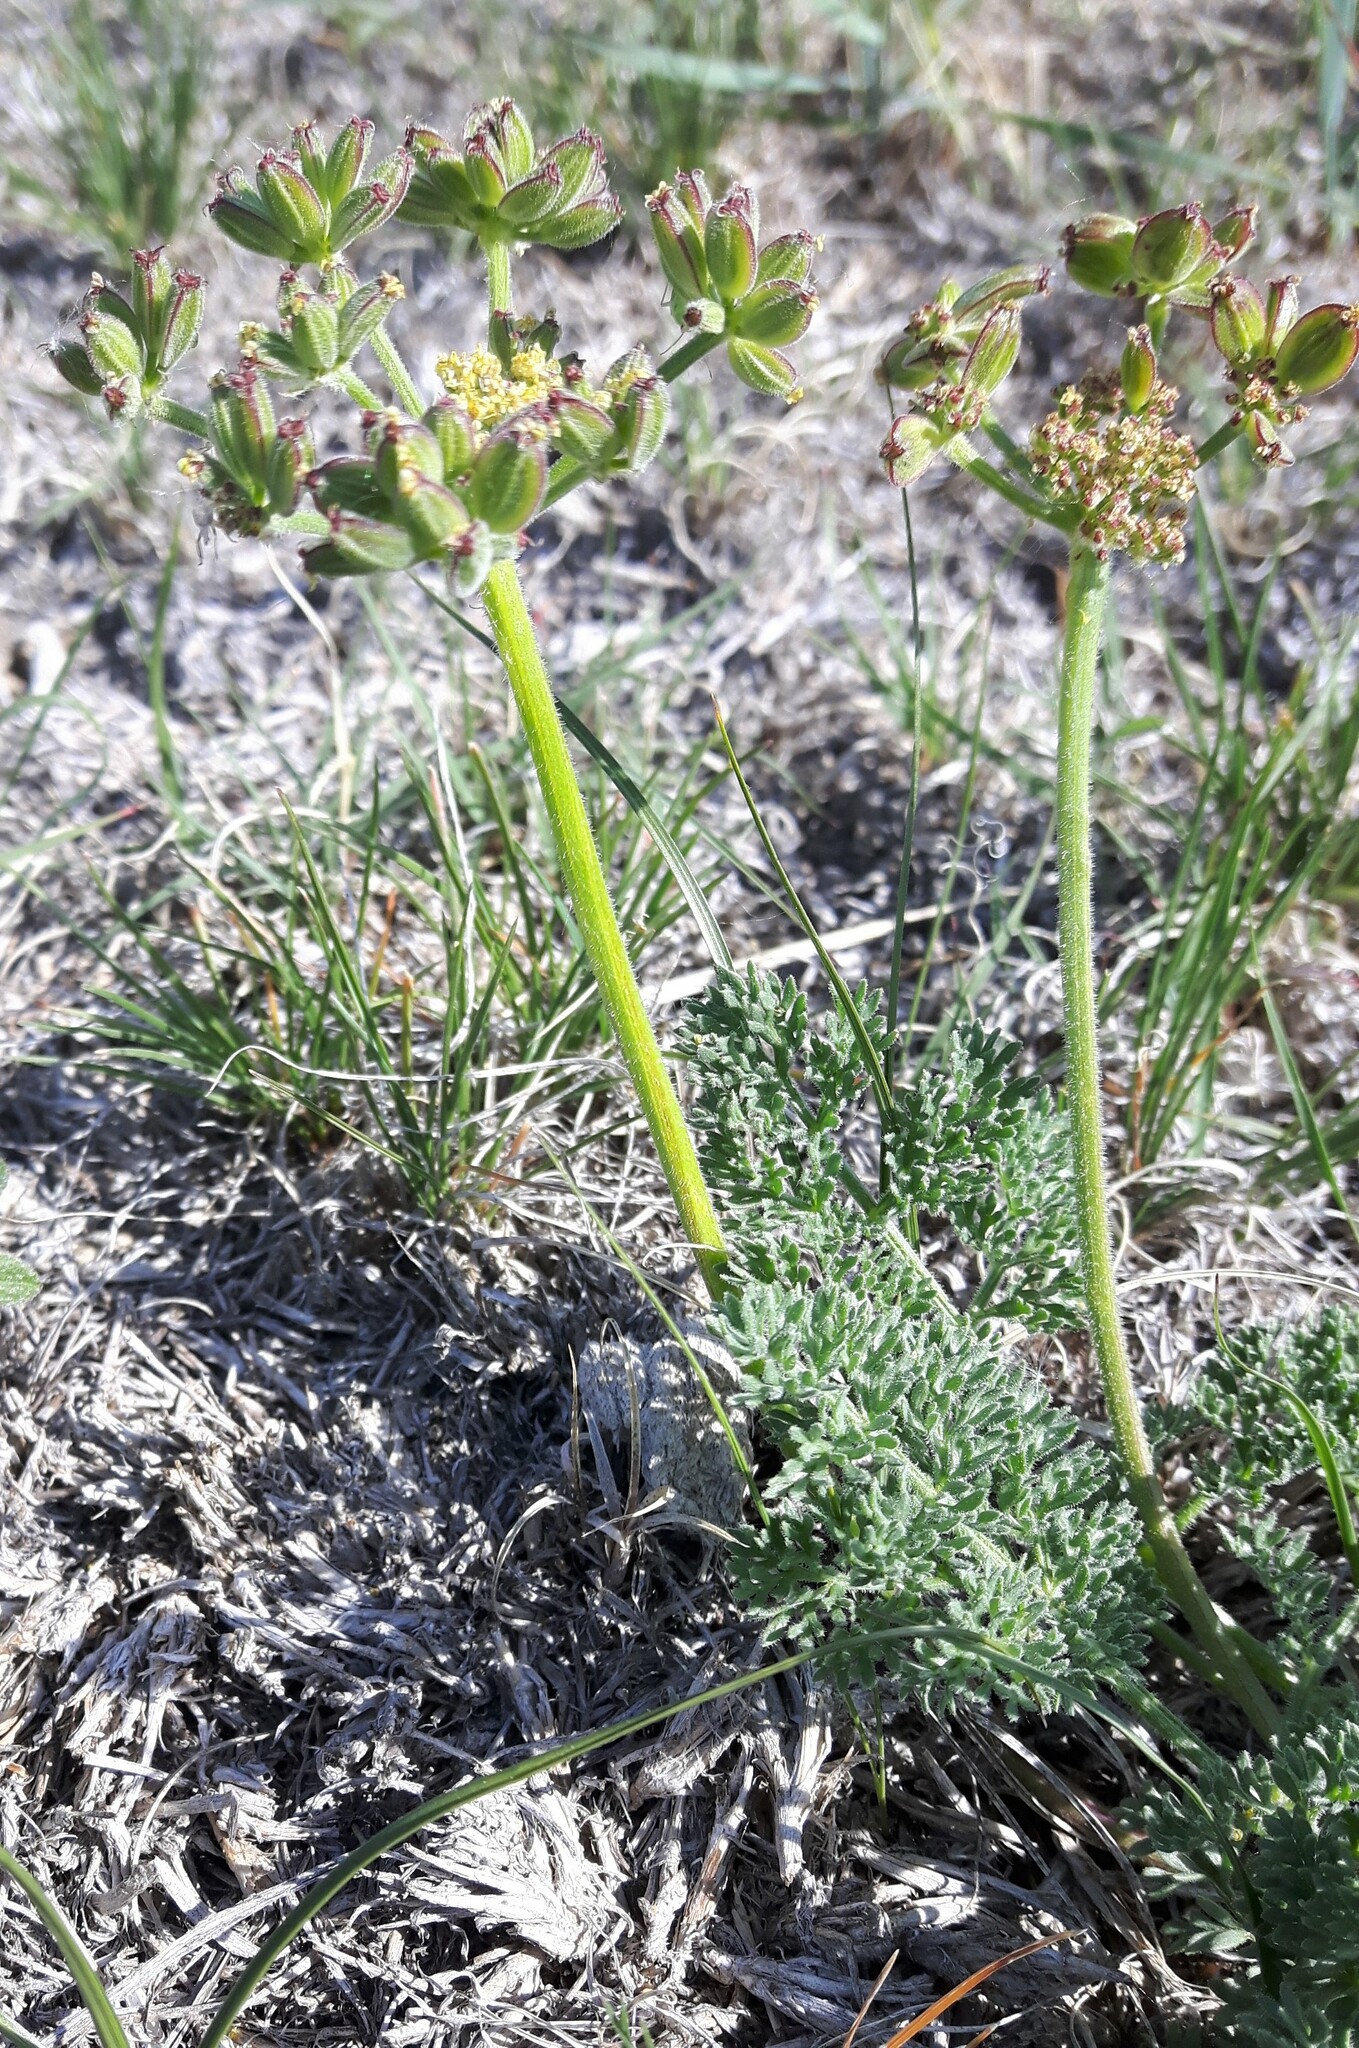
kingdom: Plantae
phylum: Tracheophyta
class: Magnoliopsida
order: Apiales
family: Apiaceae
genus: Lomatium
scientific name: Lomatium foeniculaceum
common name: Desert-parsley
